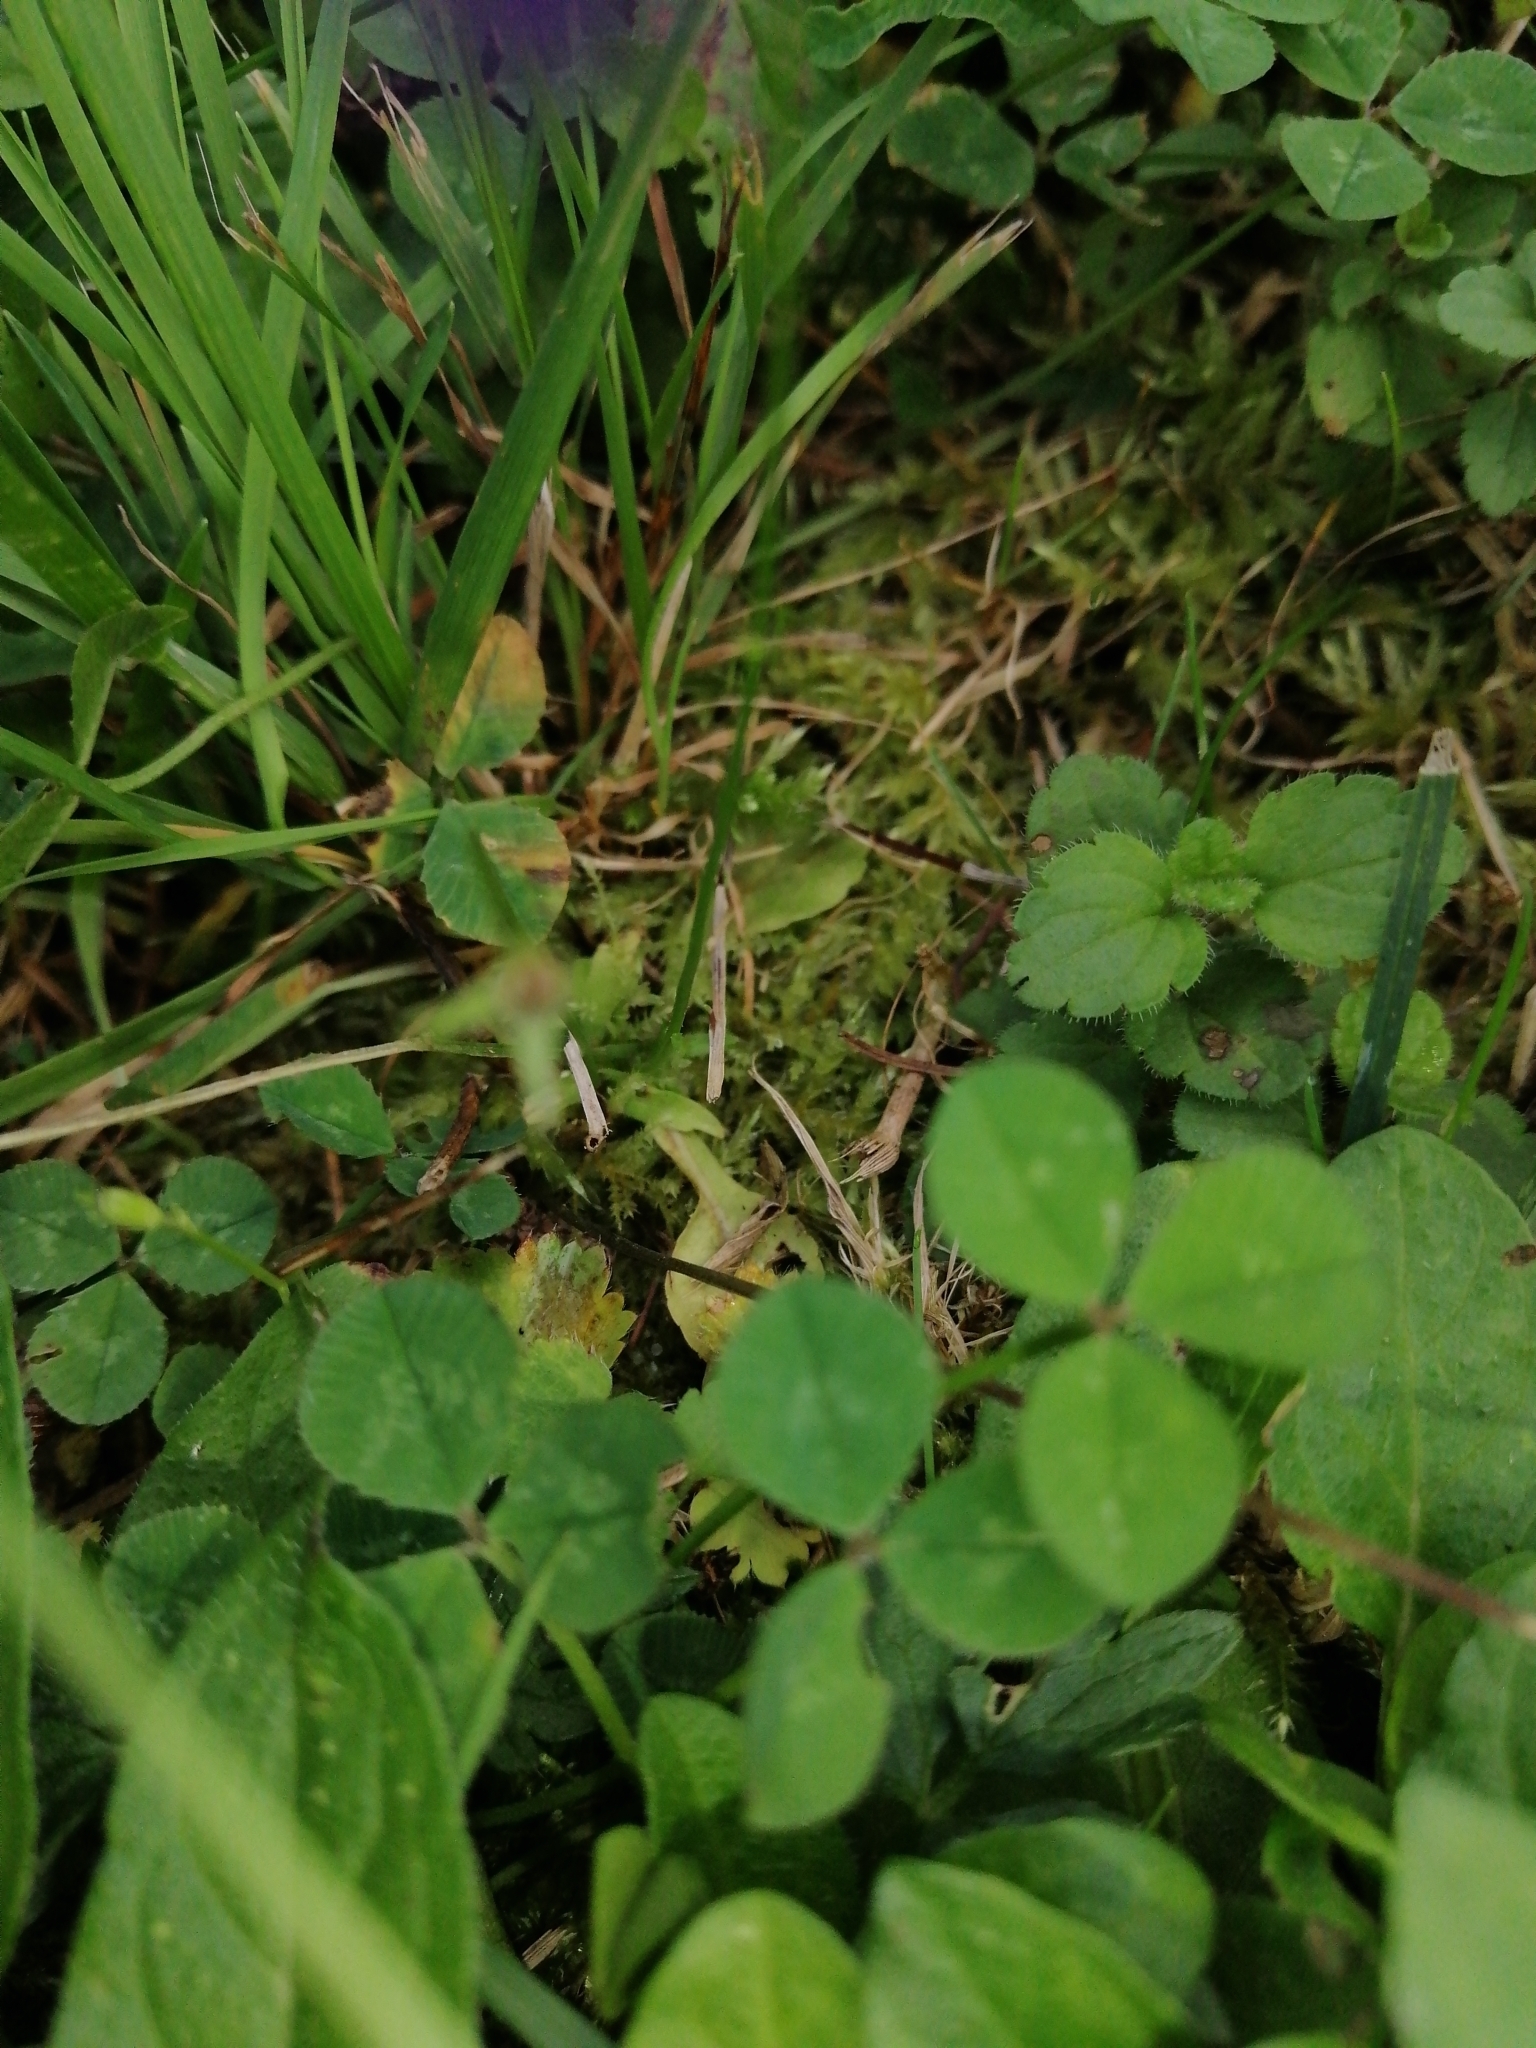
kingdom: Plantae
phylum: Tracheophyta
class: Magnoliopsida
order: Asterales
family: Campanulaceae
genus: Campanula
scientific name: Campanula patula
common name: Spreading bellflower
